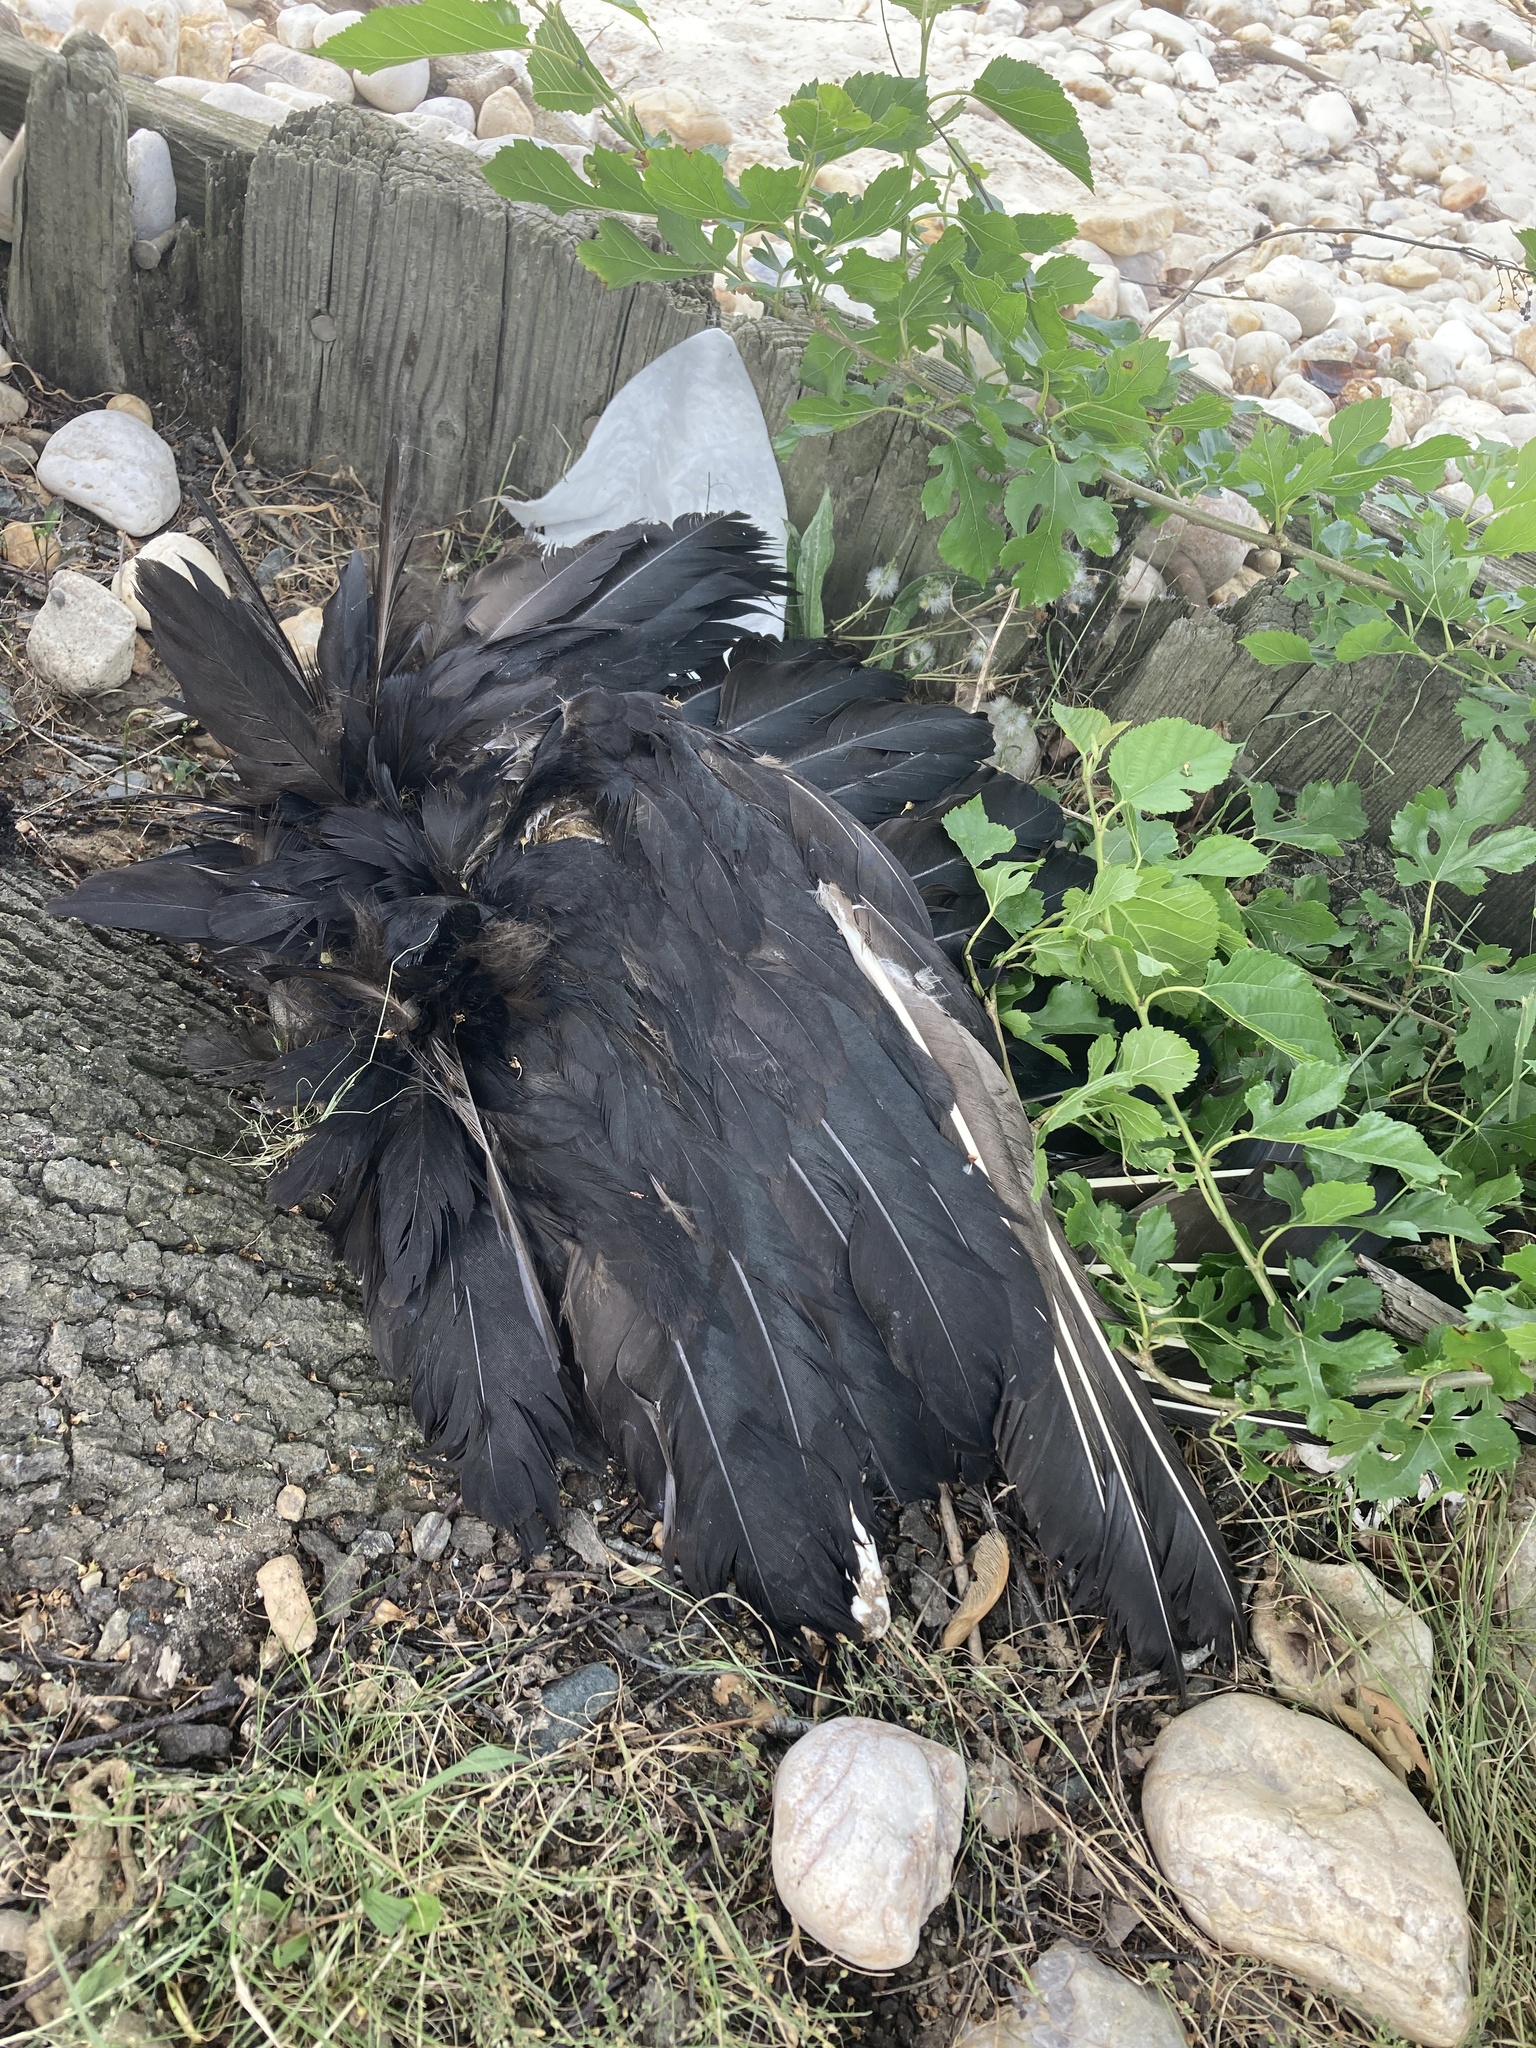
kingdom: Animalia
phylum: Chordata
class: Aves
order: Accipitriformes
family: Cathartidae
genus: Coragyps
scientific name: Coragyps atratus
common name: Black vulture
